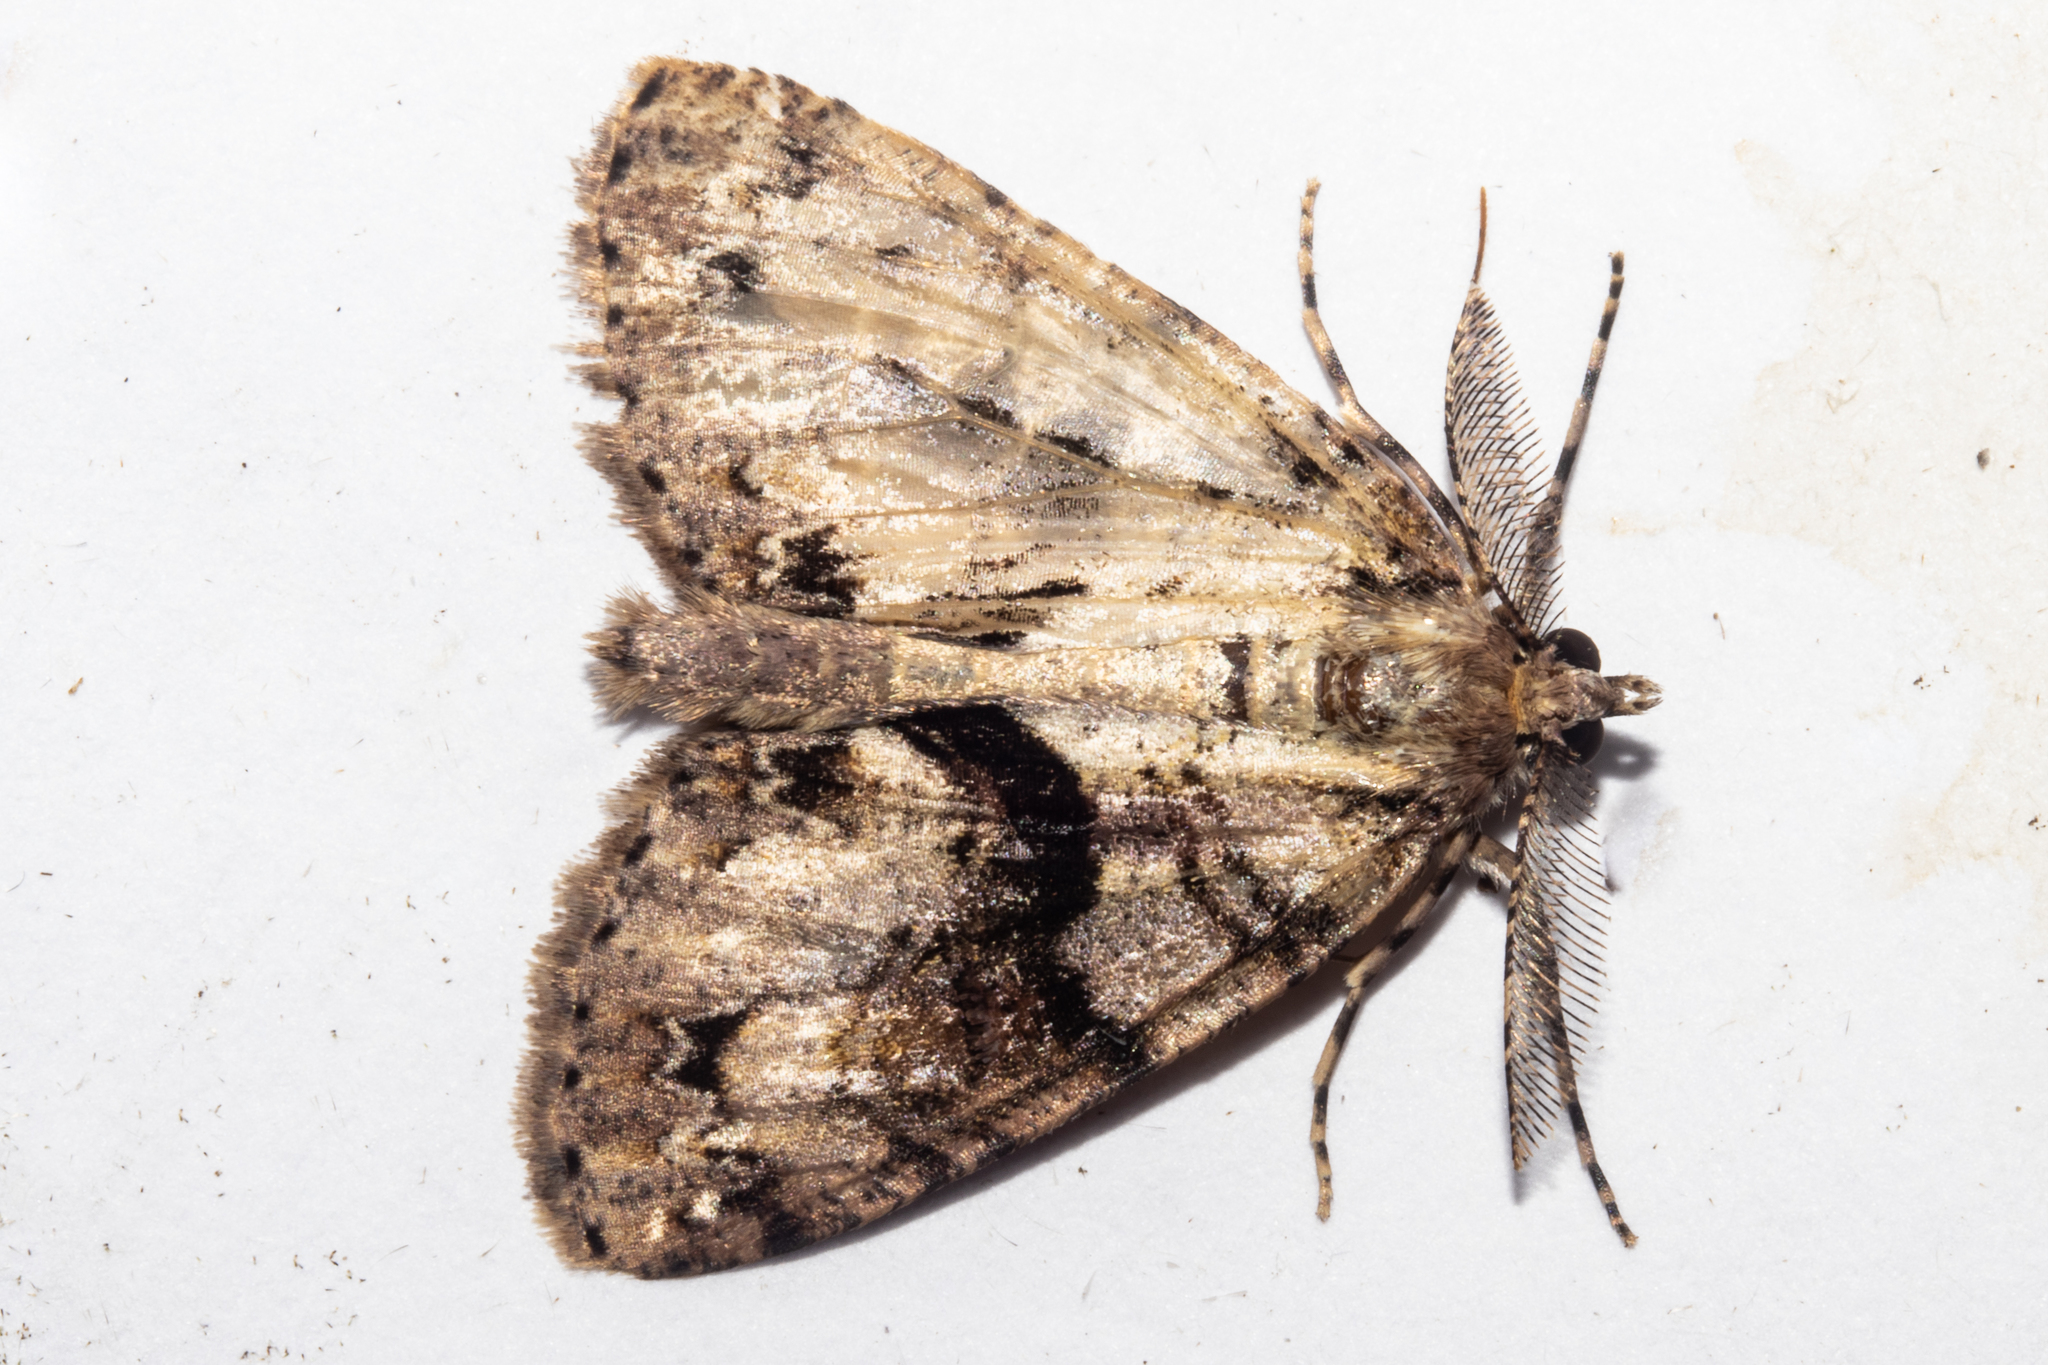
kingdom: Animalia
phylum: Arthropoda
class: Insecta
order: Lepidoptera
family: Geometridae
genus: Pseudocoremia
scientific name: Pseudocoremia suavis
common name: Common forest looper
